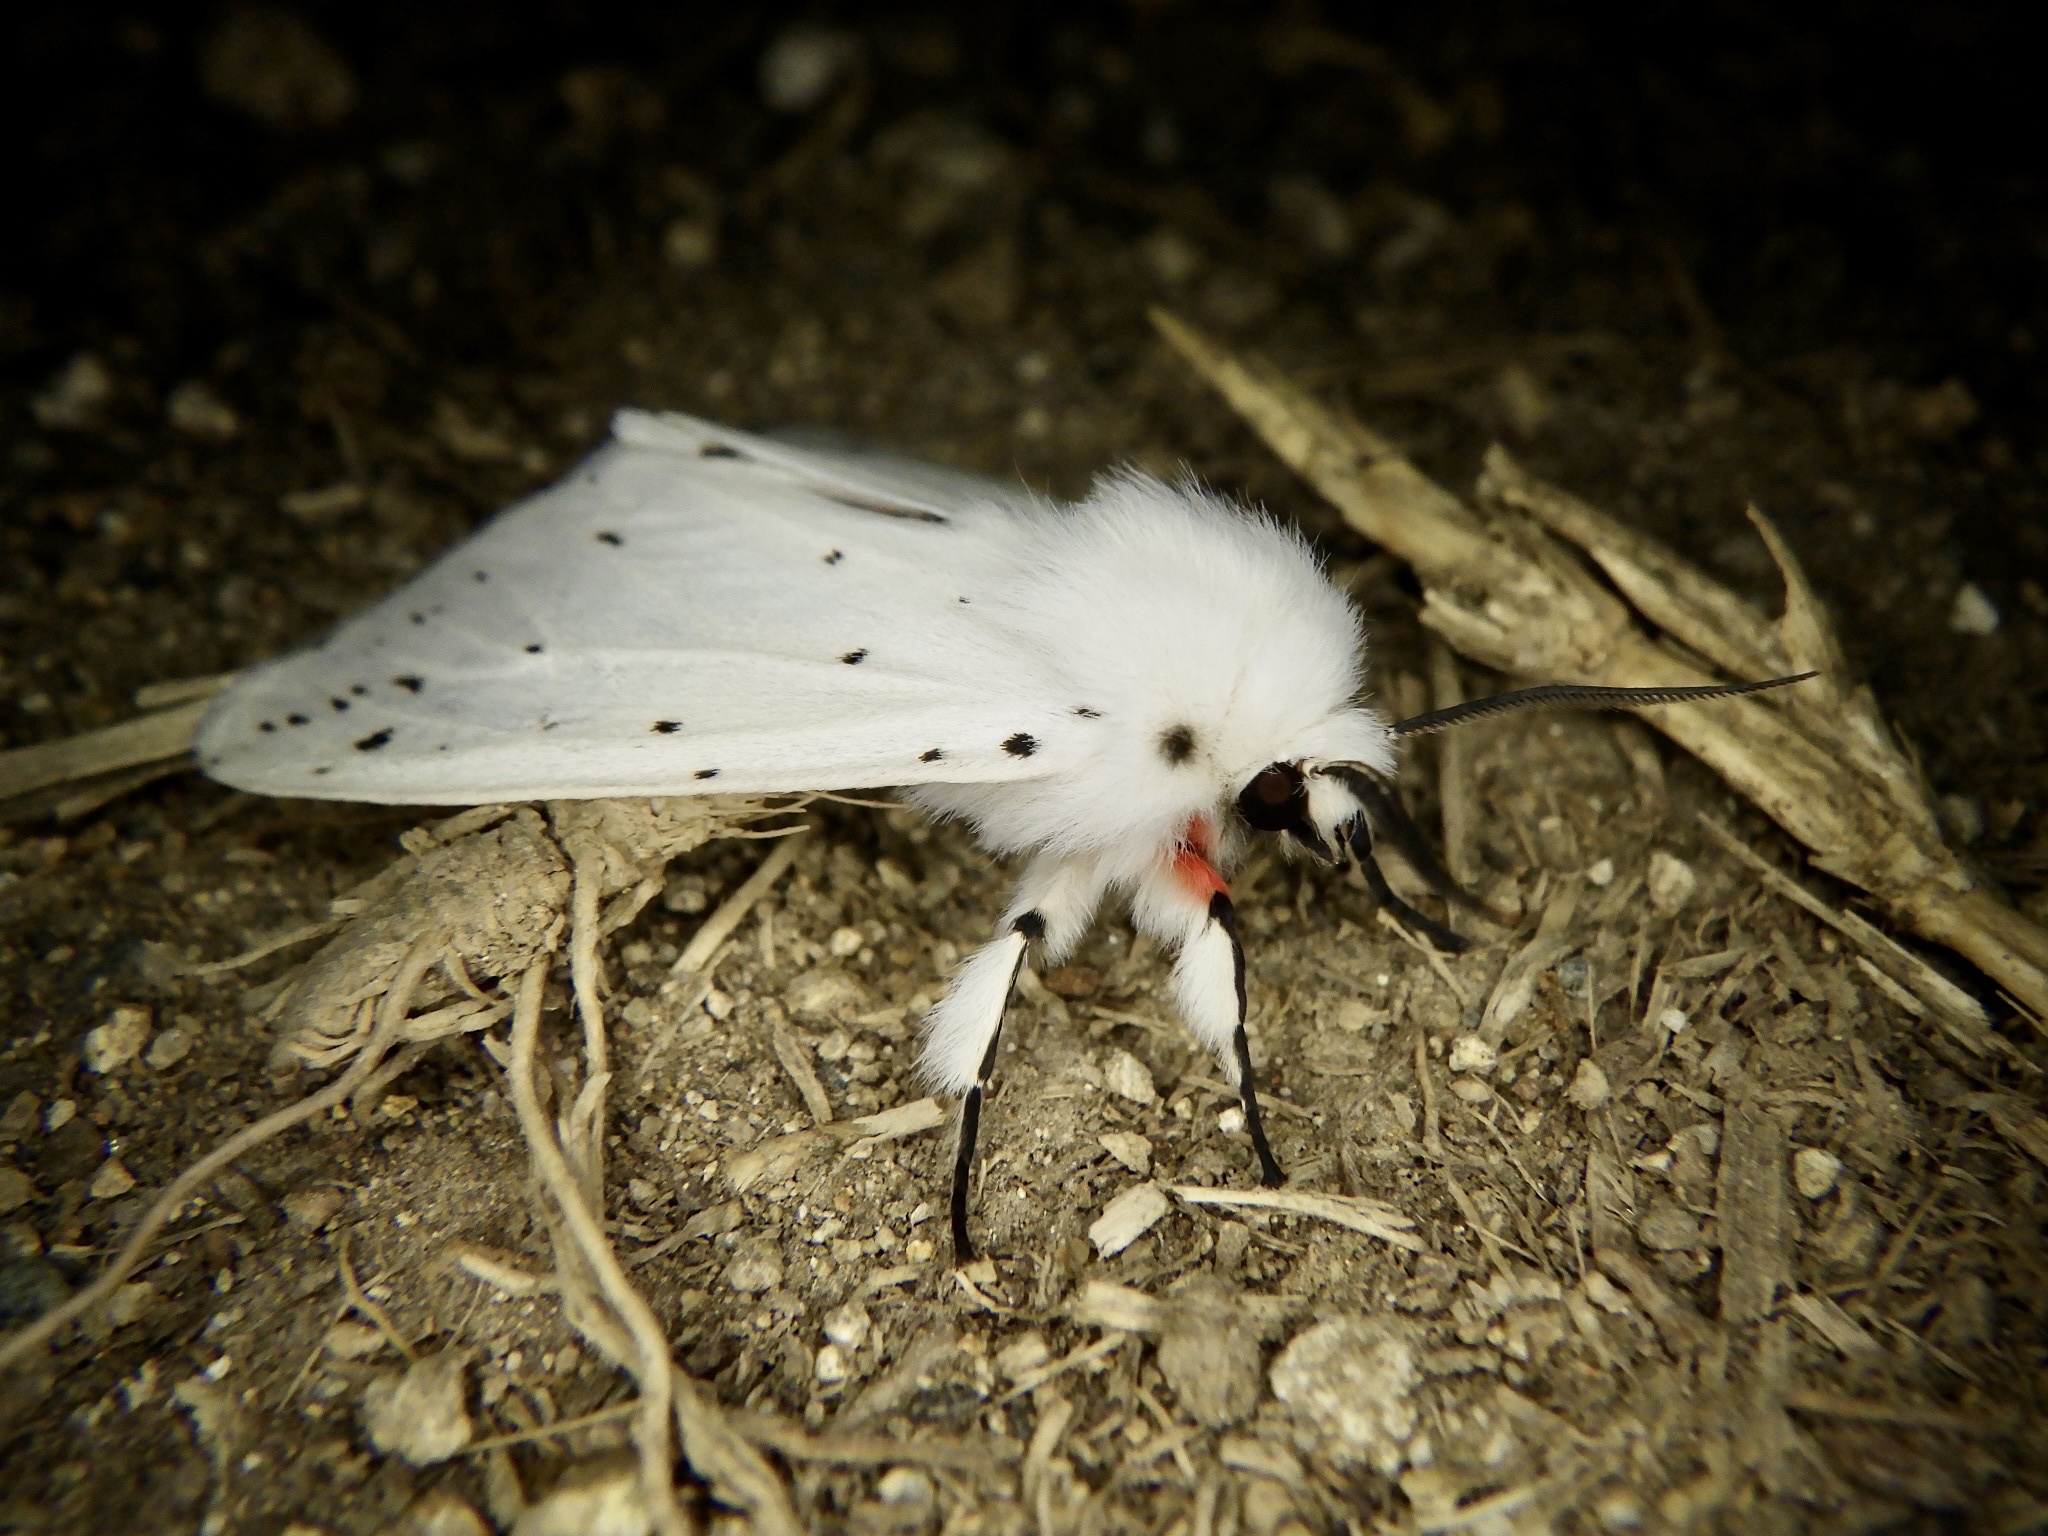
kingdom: Animalia
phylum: Arthropoda
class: Insecta
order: Lepidoptera
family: Erebidae
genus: Spilosoma
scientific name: Spilosoma punctaria
